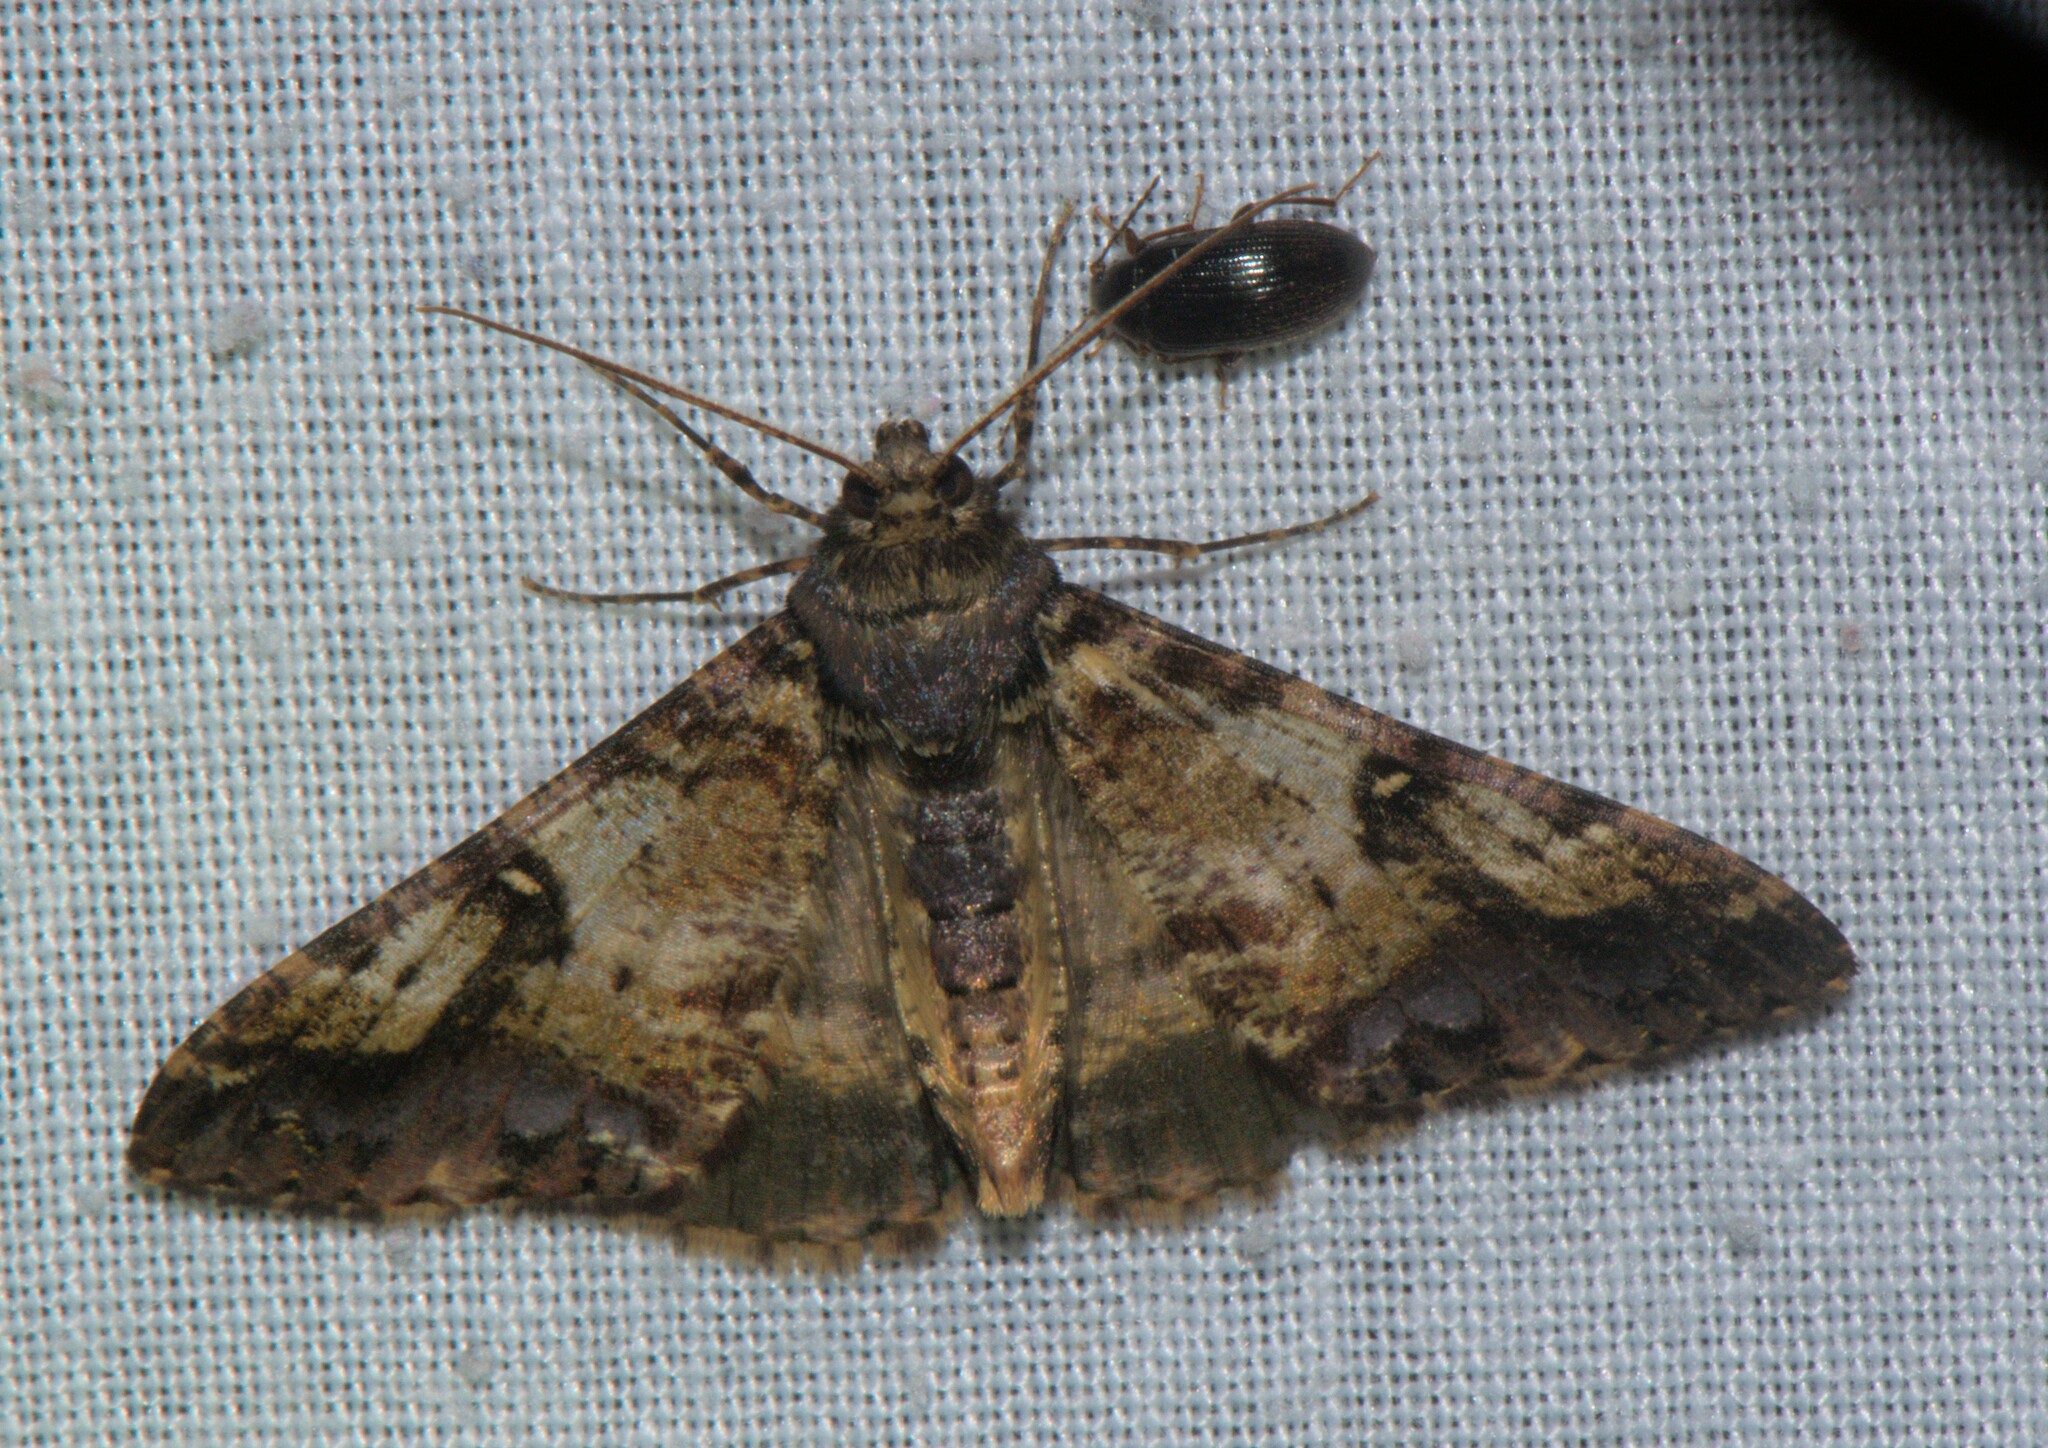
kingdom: Animalia
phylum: Arthropoda
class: Insecta
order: Lepidoptera
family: Geometridae
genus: Gasterocome
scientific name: Gasterocome pannosaria
